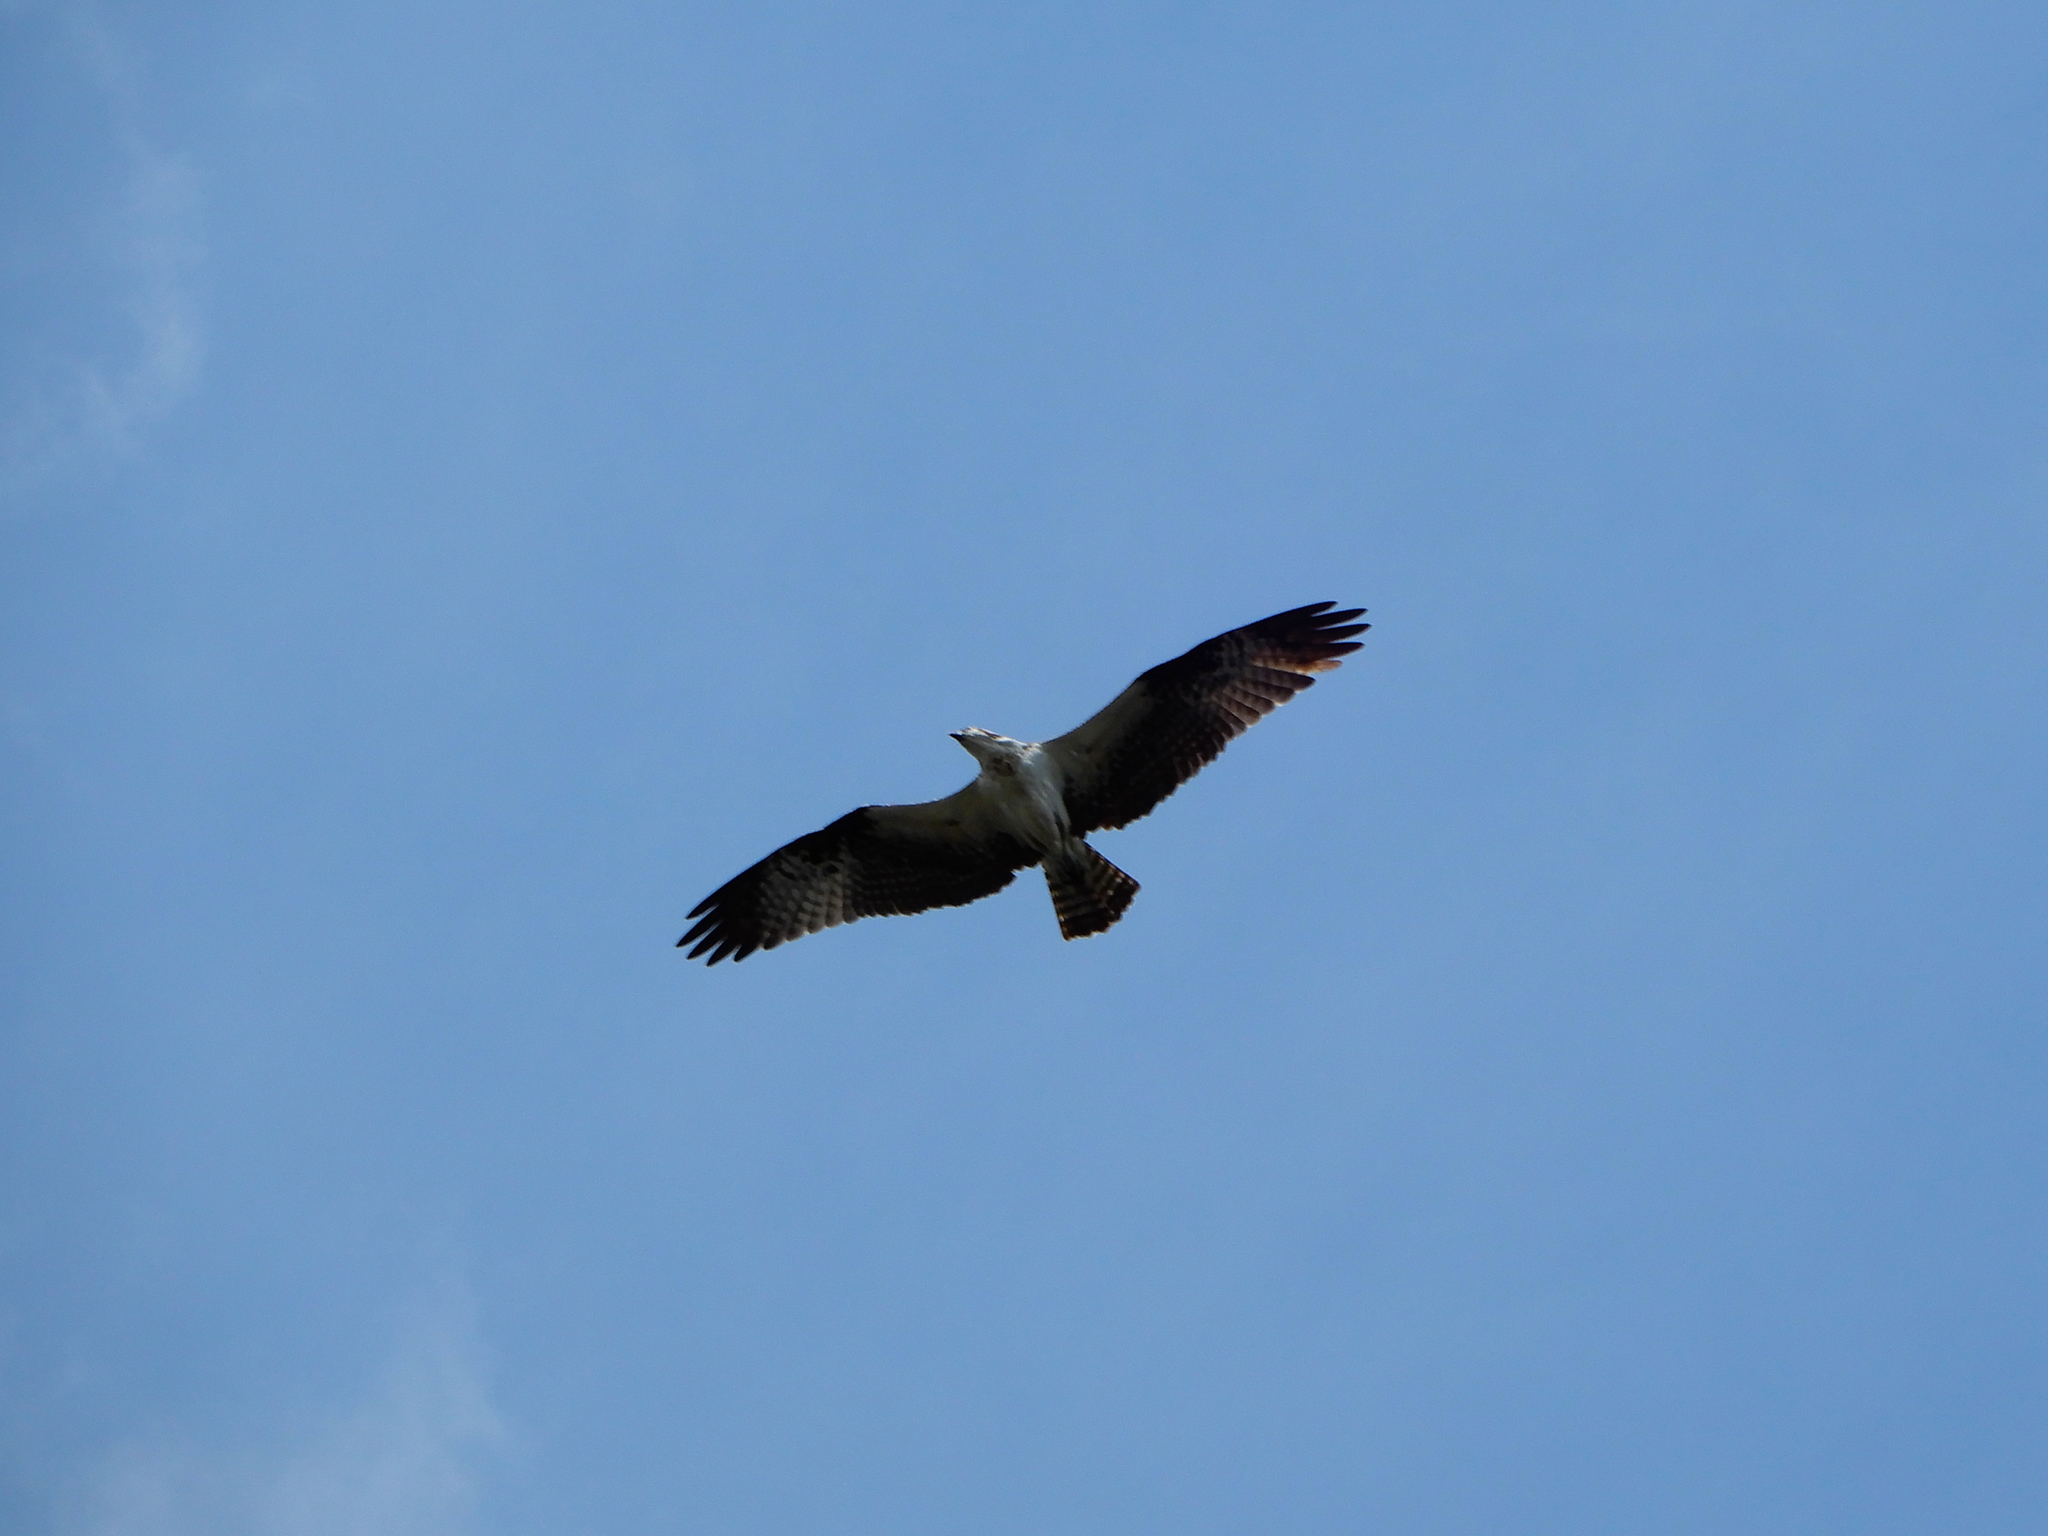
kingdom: Animalia
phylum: Chordata
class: Aves
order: Accipitriformes
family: Pandionidae
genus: Pandion
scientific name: Pandion haliaetus
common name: Osprey
